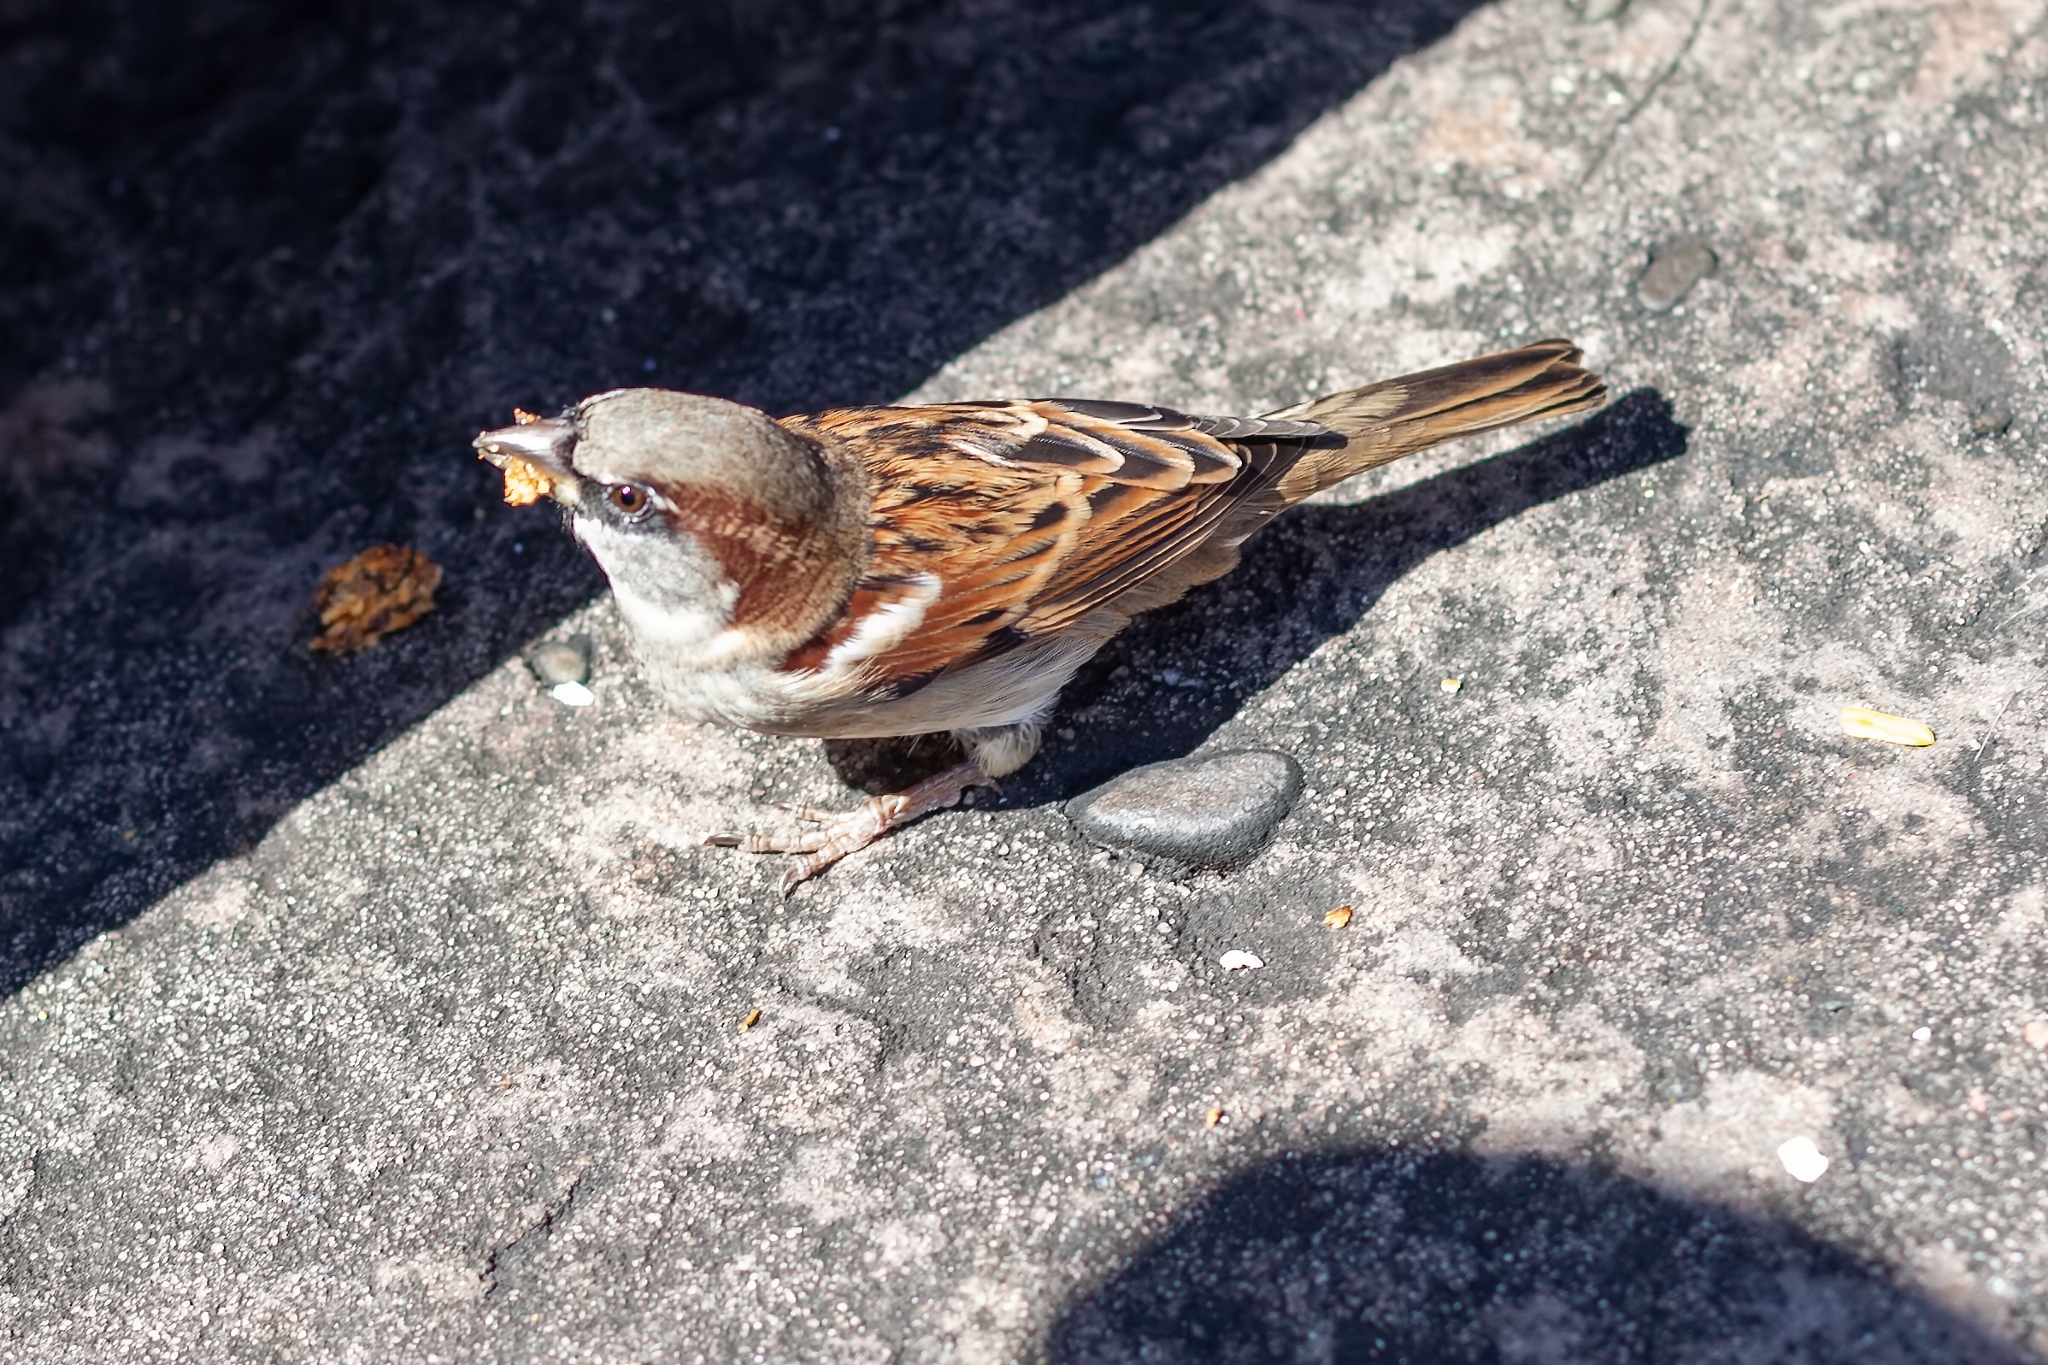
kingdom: Animalia
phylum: Chordata
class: Aves
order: Passeriformes
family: Passeridae
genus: Passer
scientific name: Passer domesticus
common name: House sparrow
